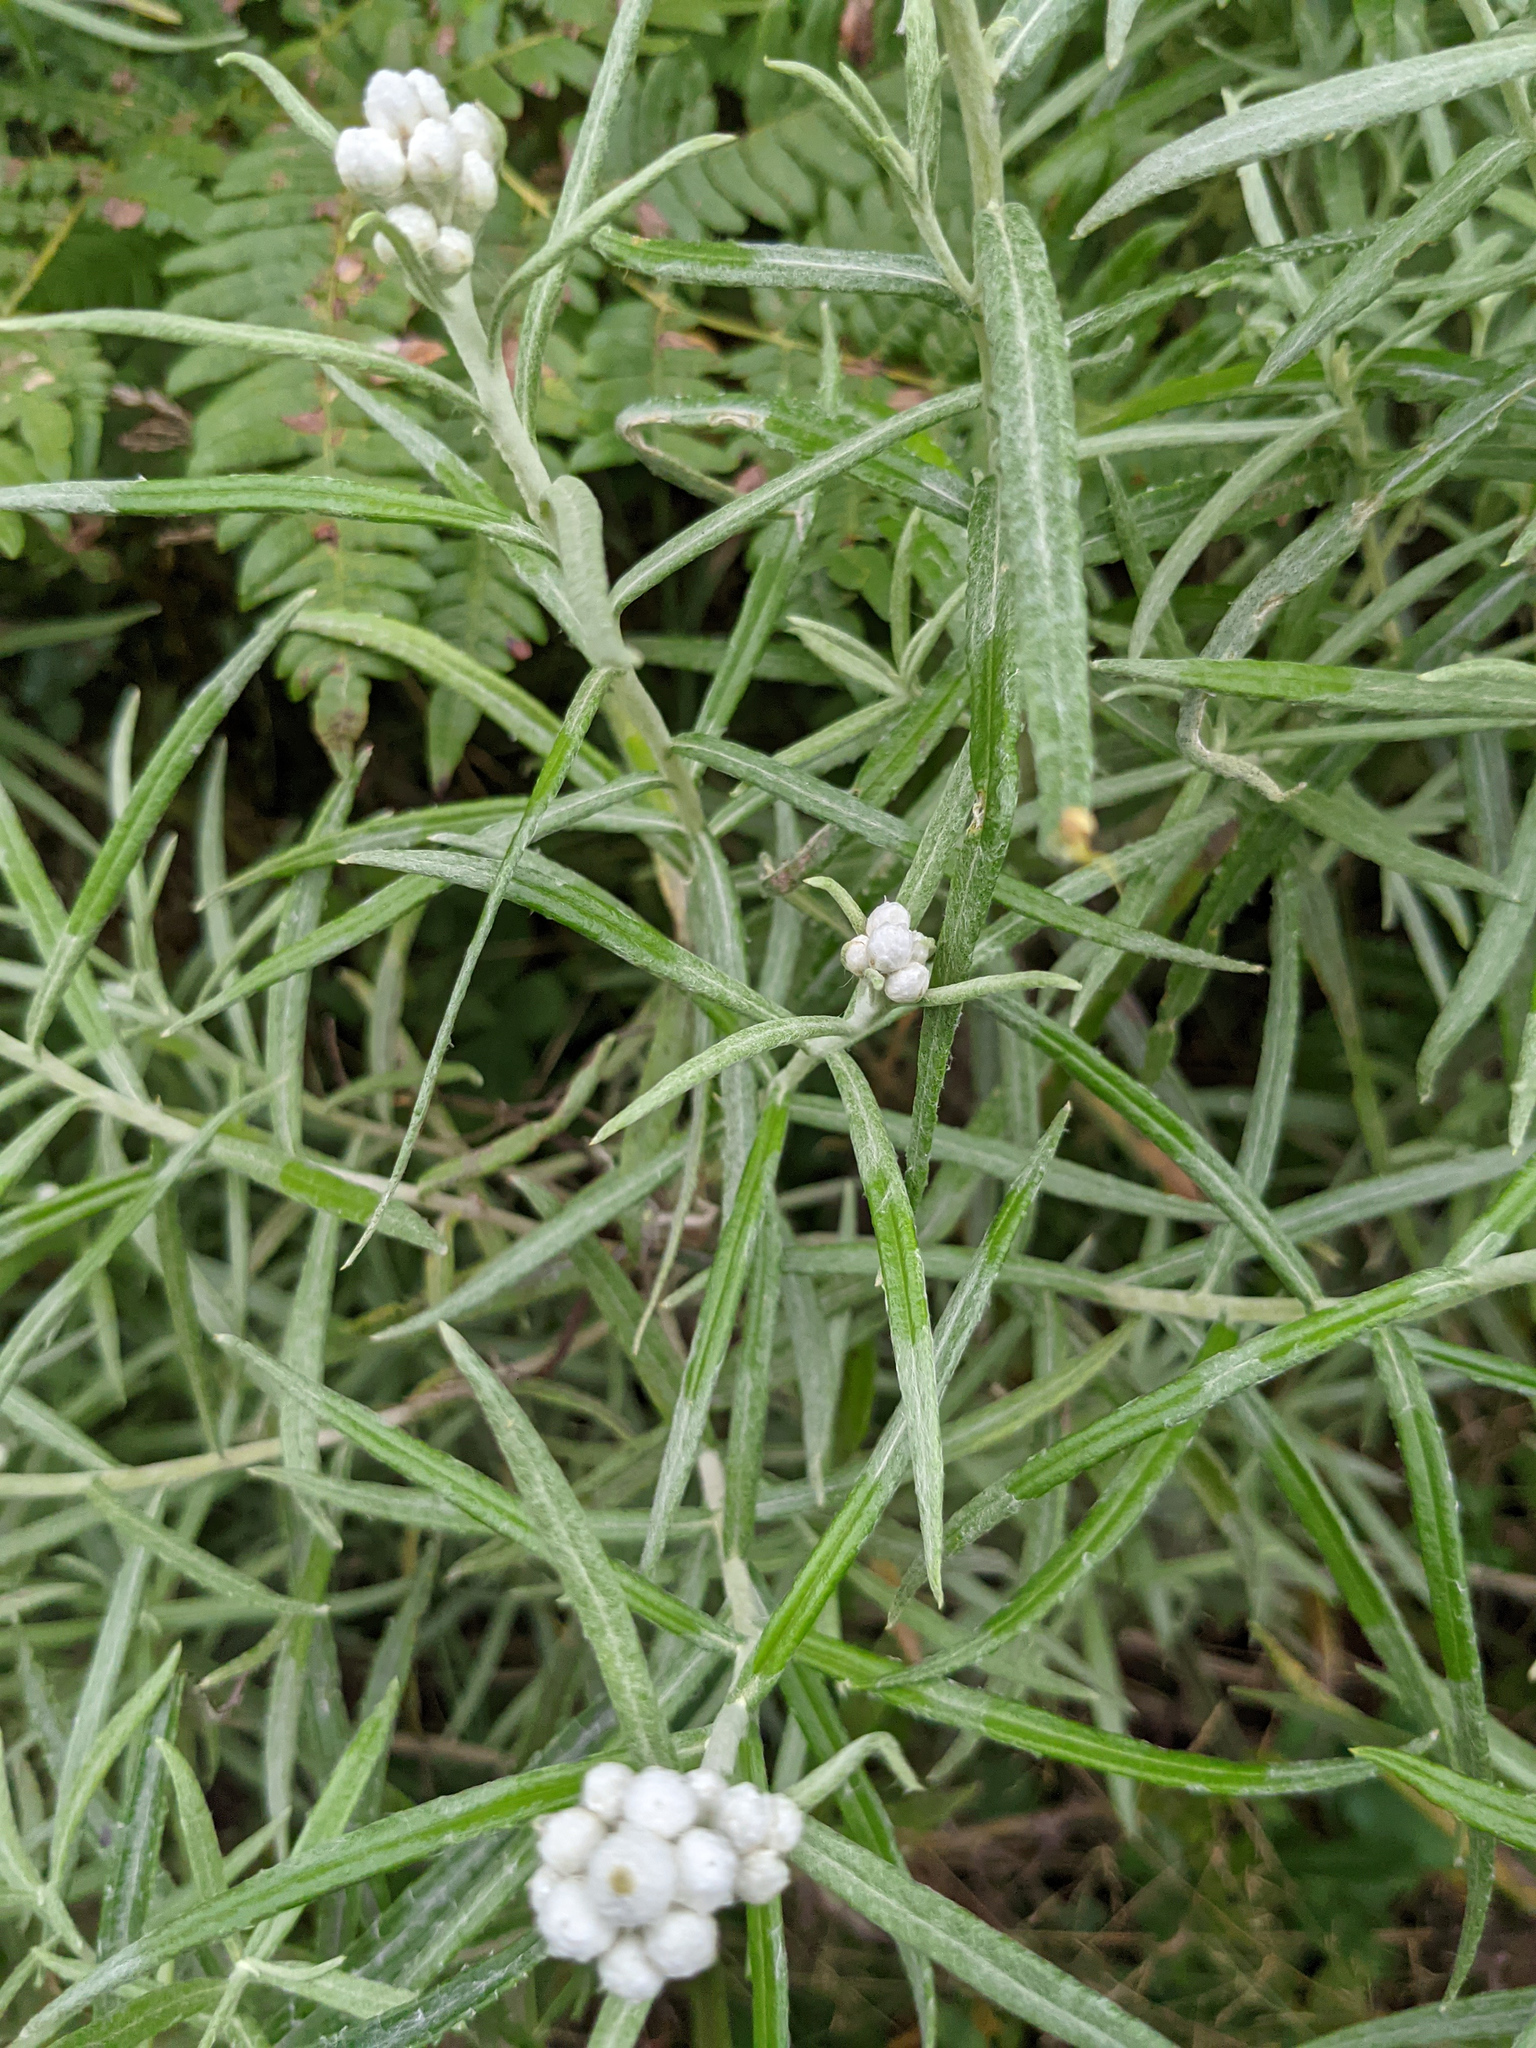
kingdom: Plantae
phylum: Tracheophyta
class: Magnoliopsida
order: Asterales
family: Asteraceae
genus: Anaphalis
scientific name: Anaphalis margaritacea
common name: Pearly everlasting
